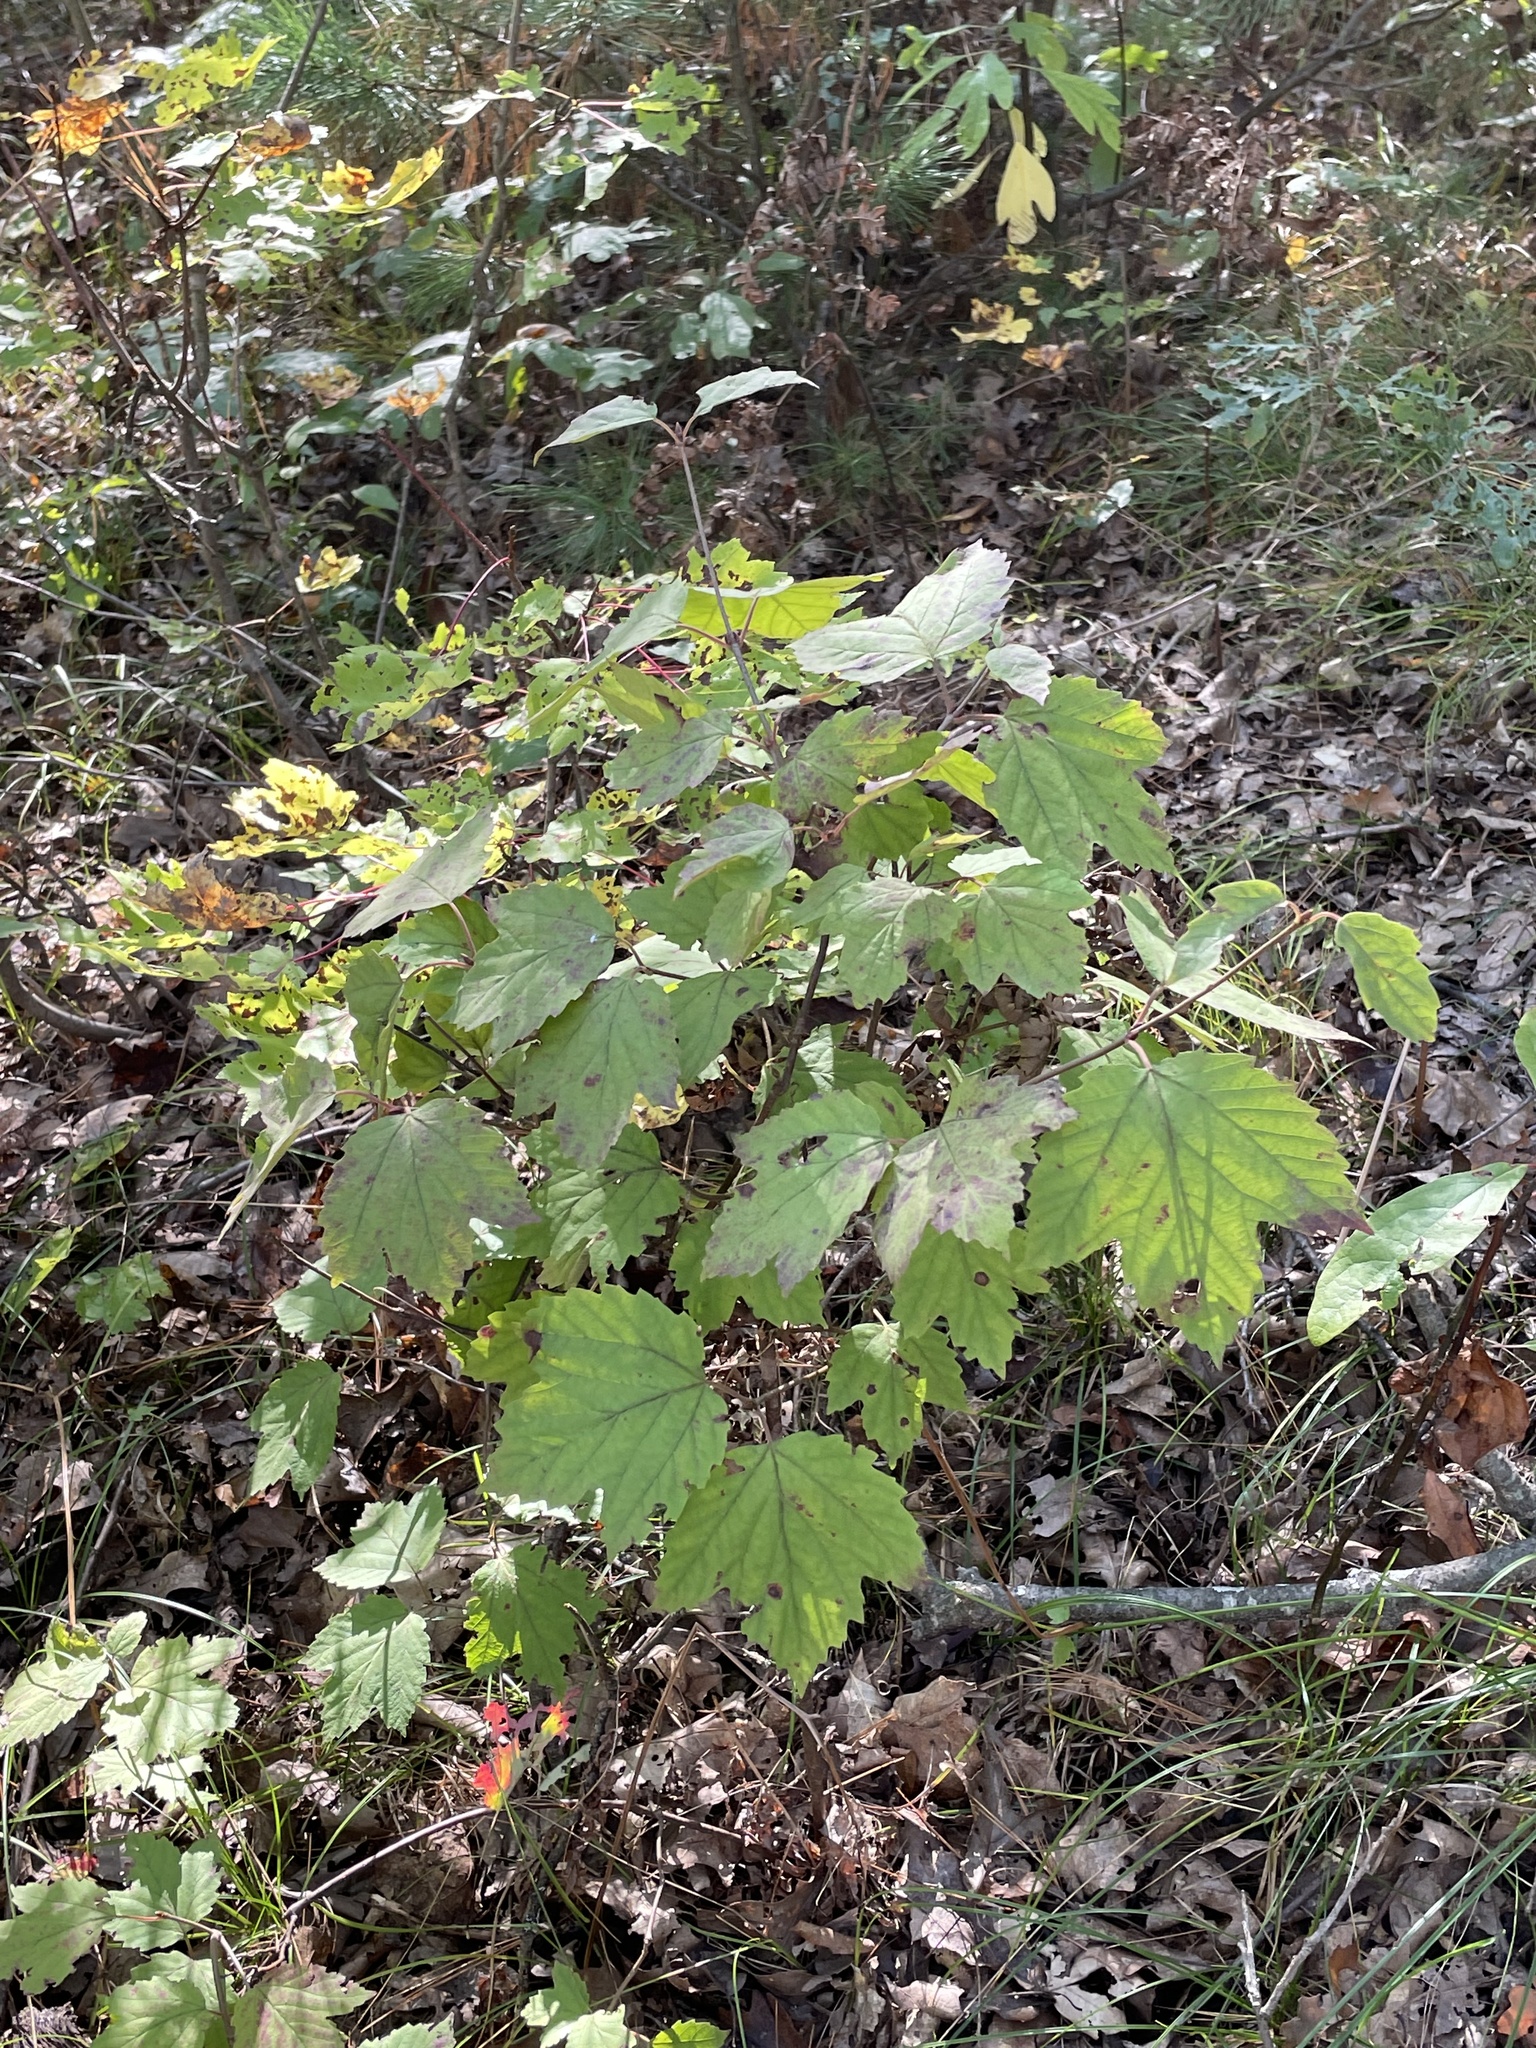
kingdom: Plantae
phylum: Tracheophyta
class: Magnoliopsida
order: Dipsacales
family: Viburnaceae
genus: Viburnum
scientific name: Viburnum acerifolium
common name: Dockmackie
